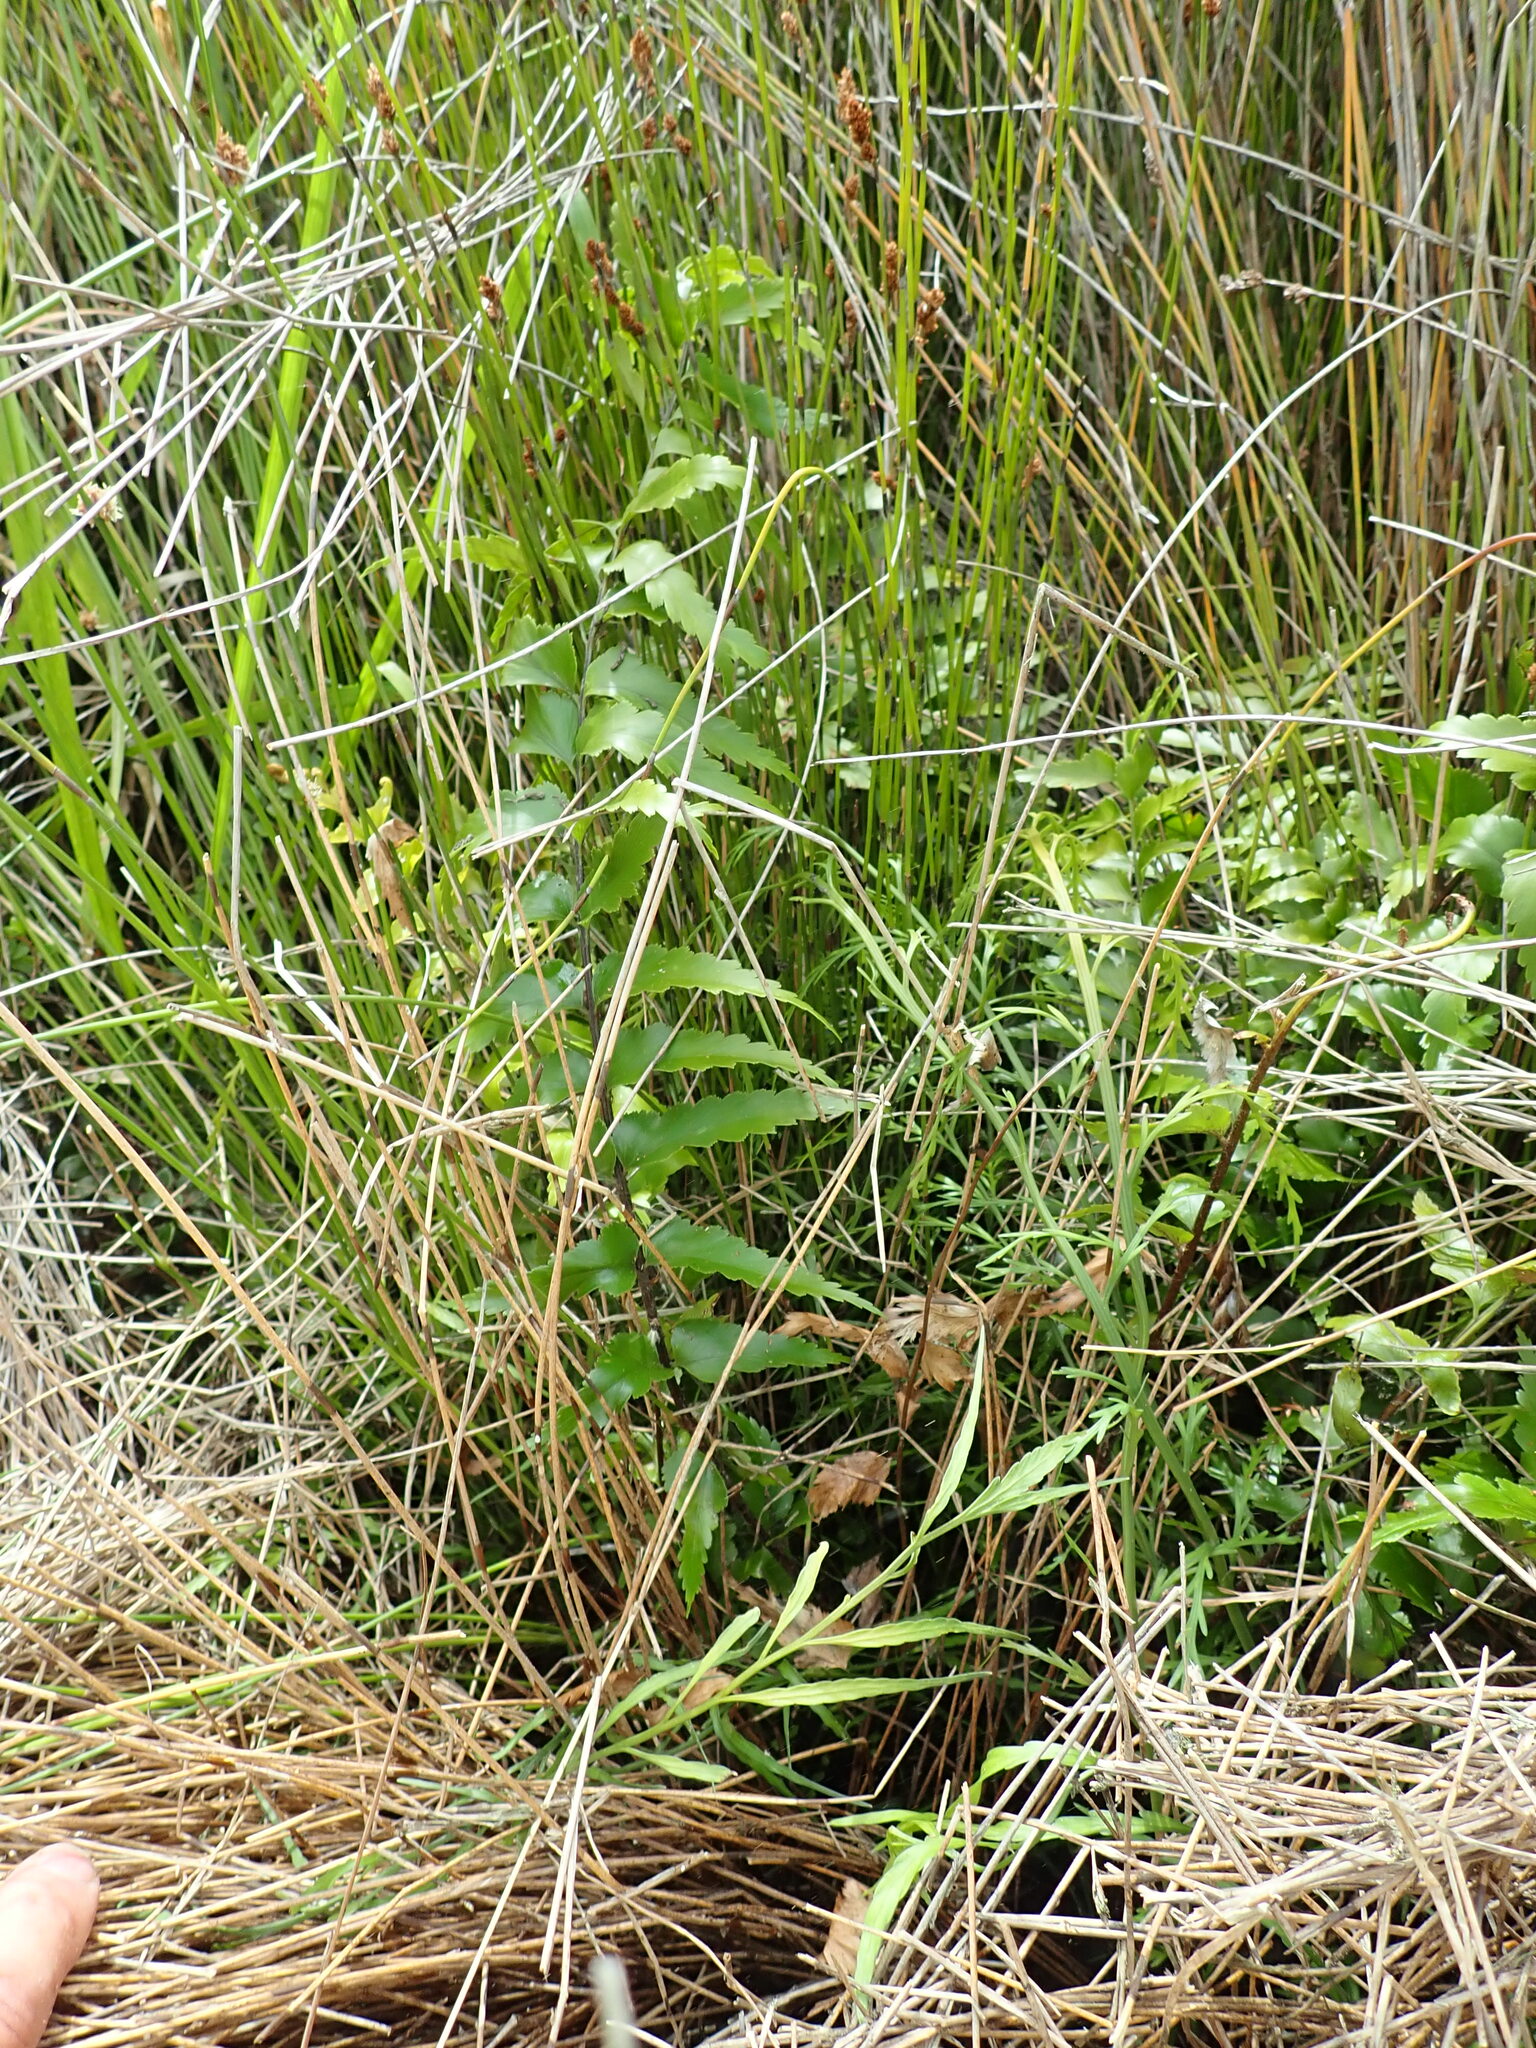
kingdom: Plantae
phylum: Tracheophyta
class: Polypodiopsida
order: Polypodiales
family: Aspleniaceae
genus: Asplenium
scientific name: Asplenium polyodon
